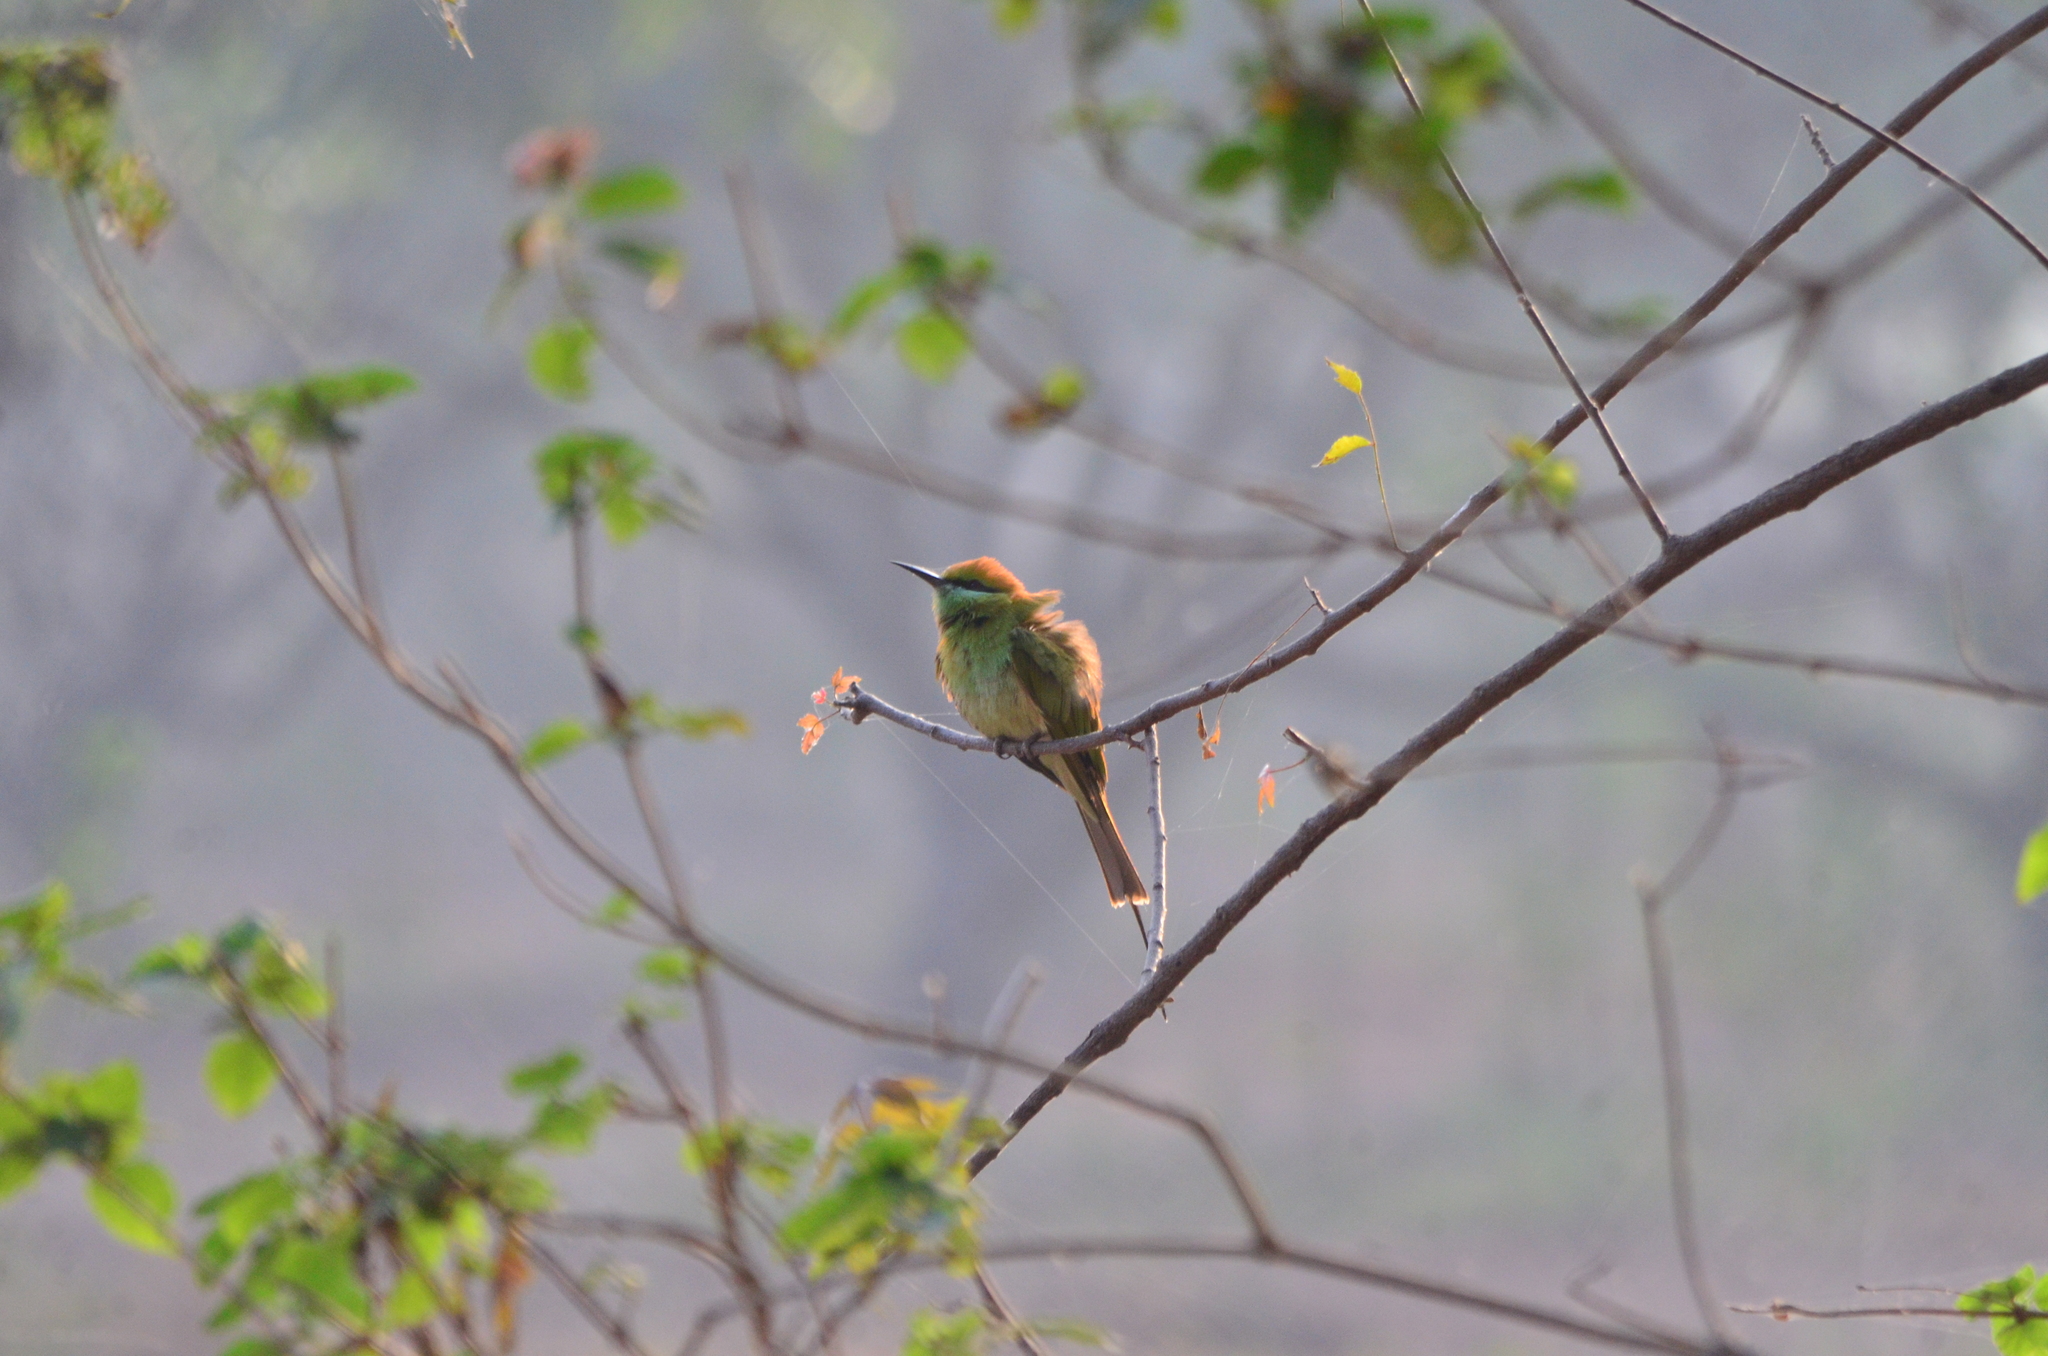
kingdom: Animalia
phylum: Chordata
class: Aves
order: Coraciiformes
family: Meropidae
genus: Merops
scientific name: Merops orientalis
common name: Green bee-eater
